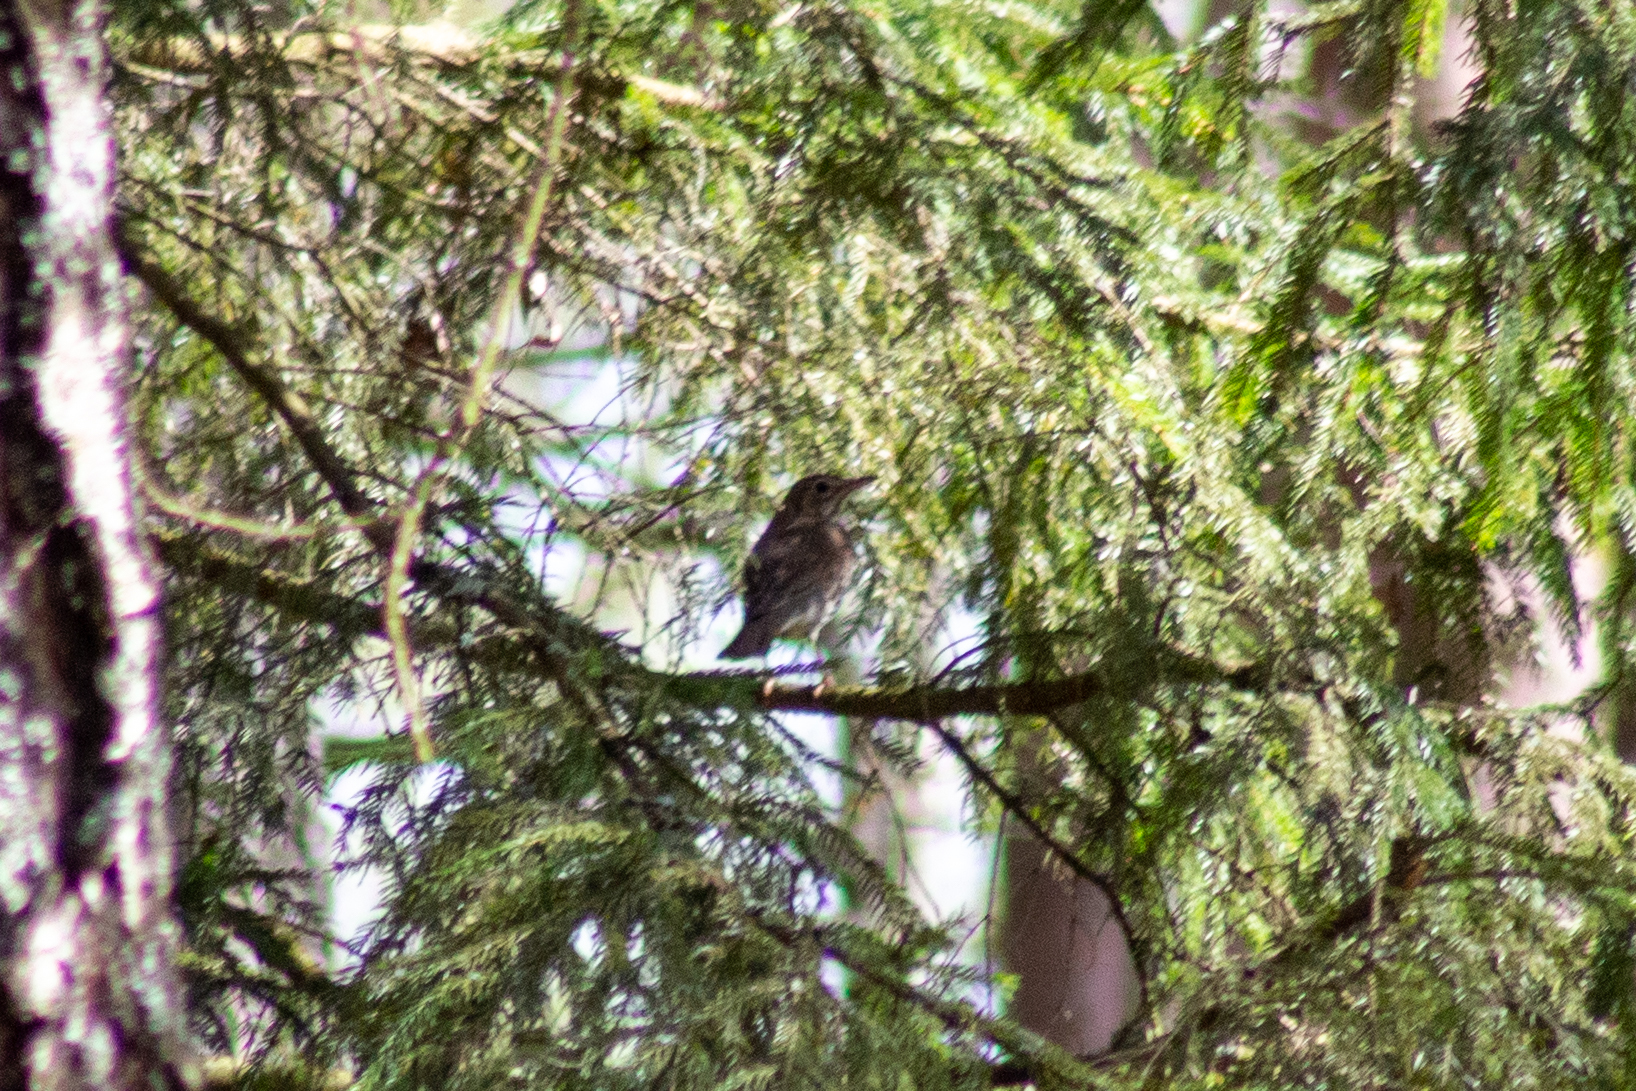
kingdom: Animalia
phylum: Chordata
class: Aves
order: Passeriformes
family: Motacillidae
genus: Anthus
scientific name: Anthus campestris
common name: Tawny pipit
